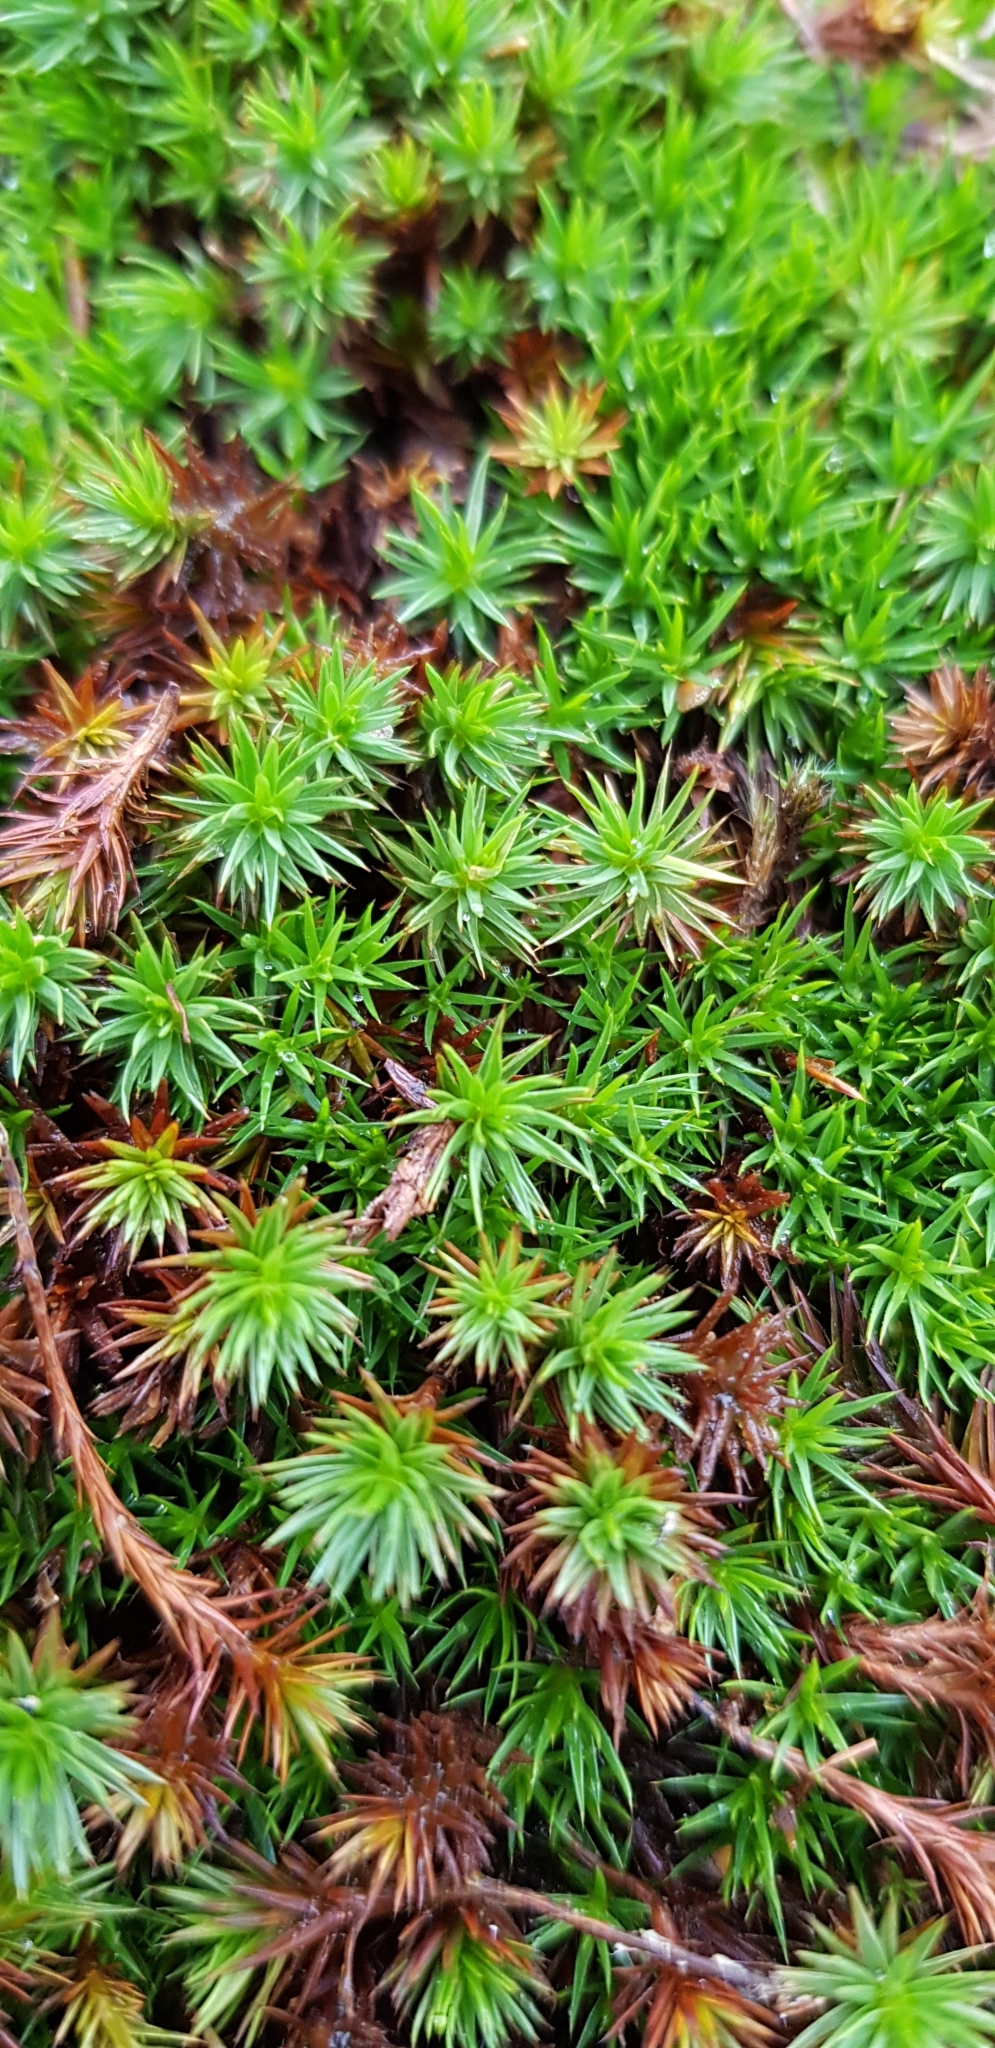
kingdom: Plantae
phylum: Bryophyta
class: Polytrichopsida
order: Polytrichales
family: Polytrichaceae
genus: Polytrichum
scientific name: Polytrichum juniperinum
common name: Juniper haircap moss
